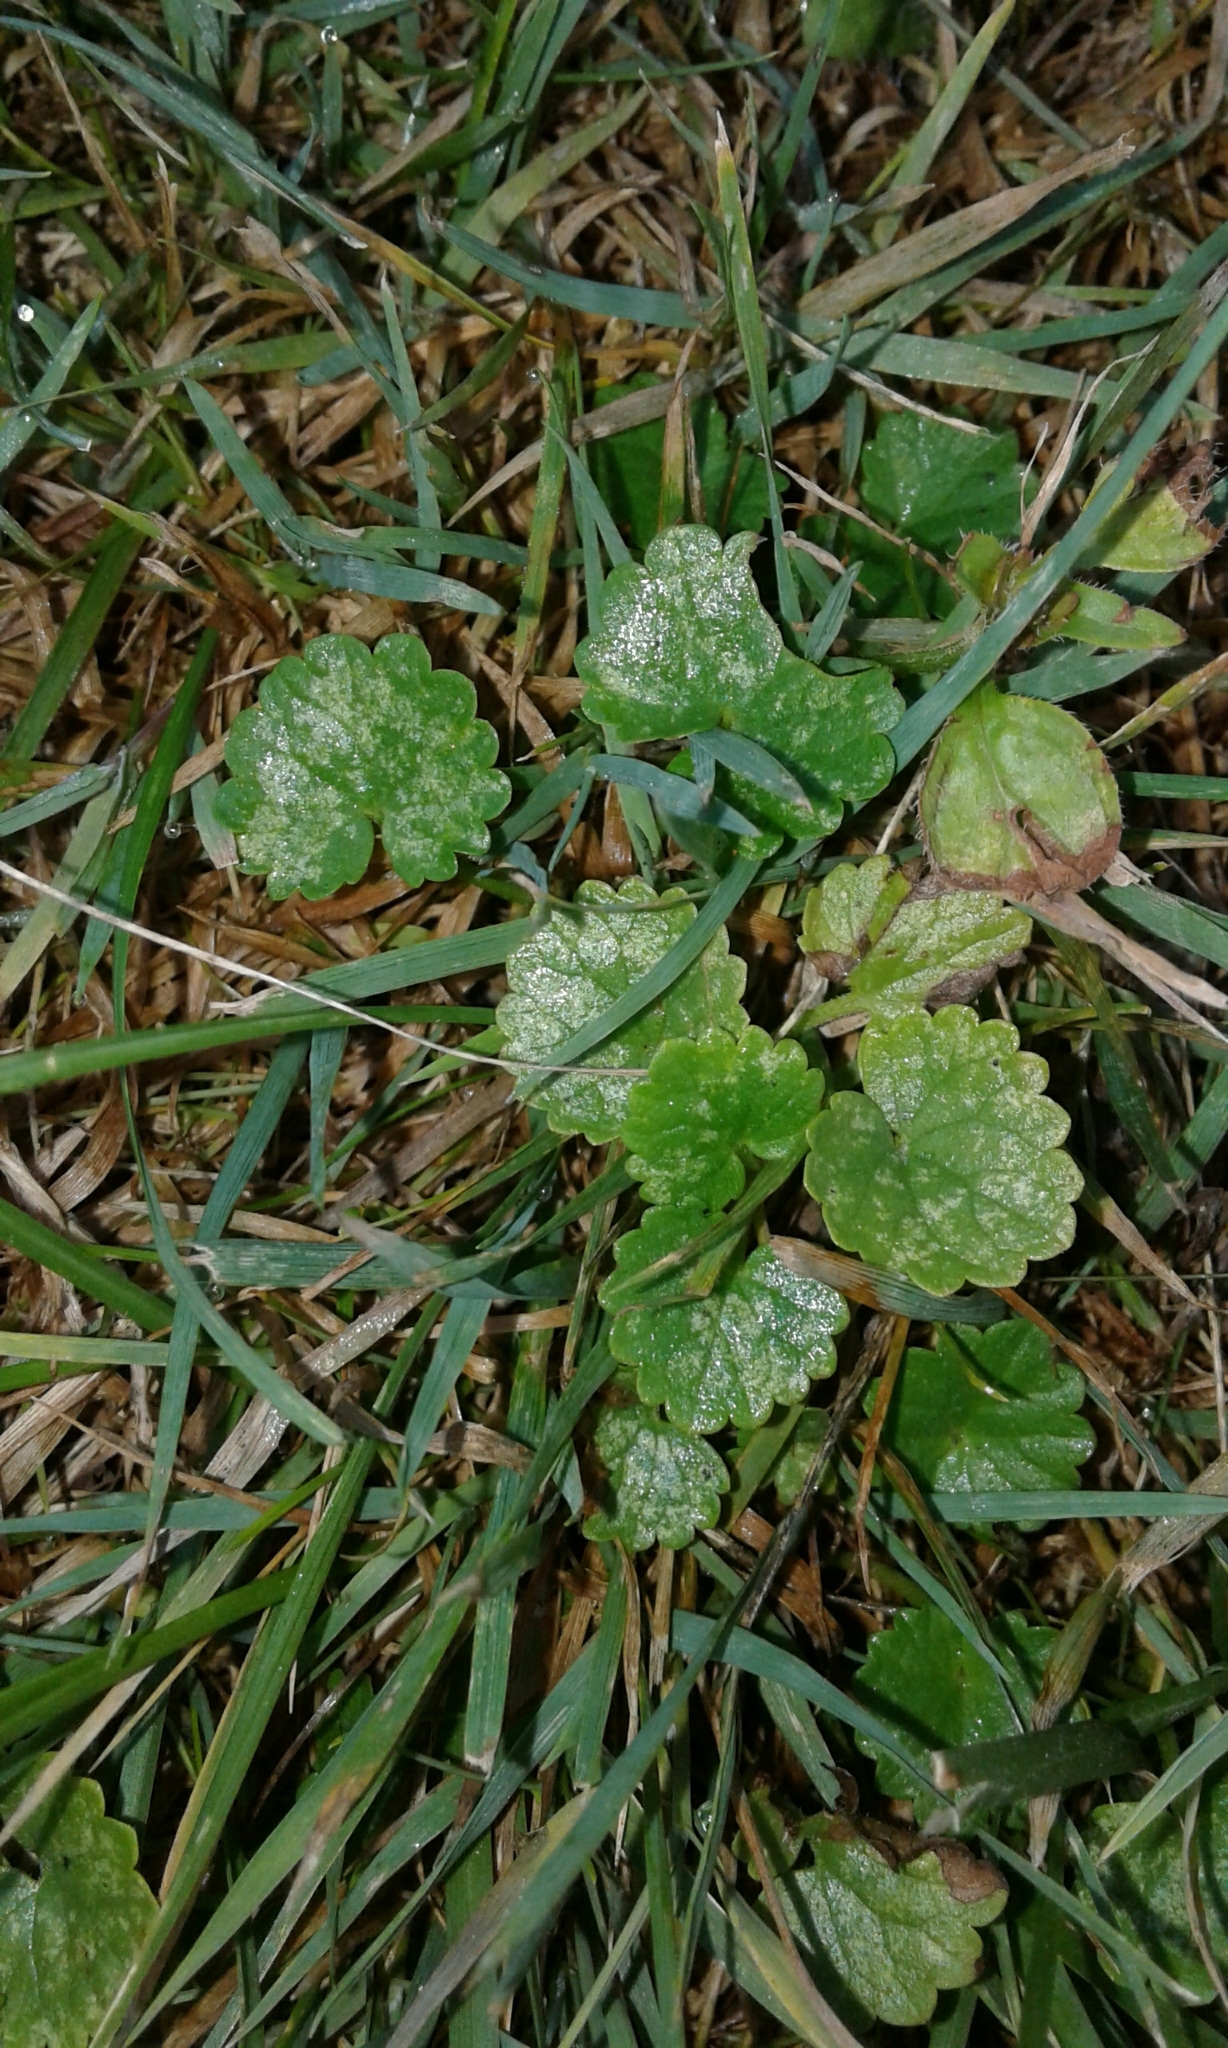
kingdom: Plantae
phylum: Tracheophyta
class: Magnoliopsida
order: Lamiales
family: Lamiaceae
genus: Glechoma
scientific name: Glechoma hederacea
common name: Ground ivy
